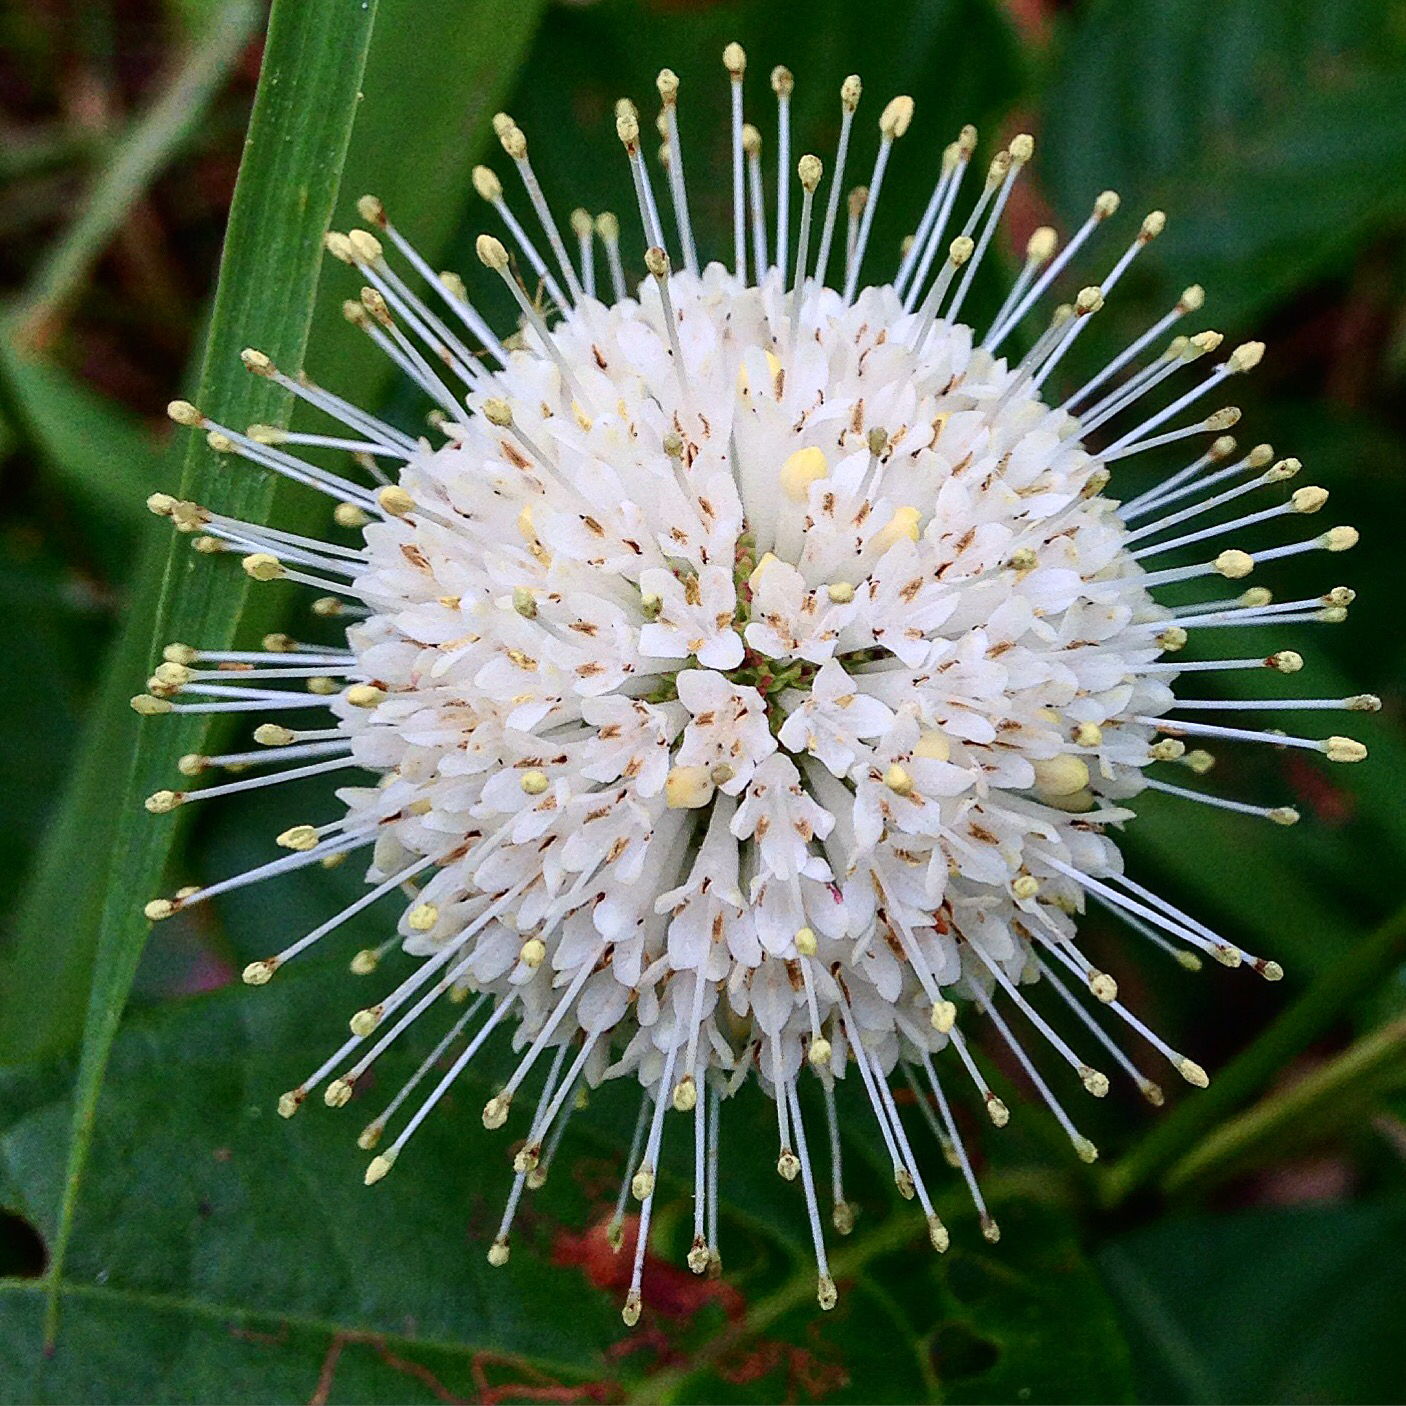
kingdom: Plantae
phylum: Tracheophyta
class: Magnoliopsida
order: Gentianales
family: Rubiaceae
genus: Cephalanthus
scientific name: Cephalanthus occidentalis
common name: Button-willow
